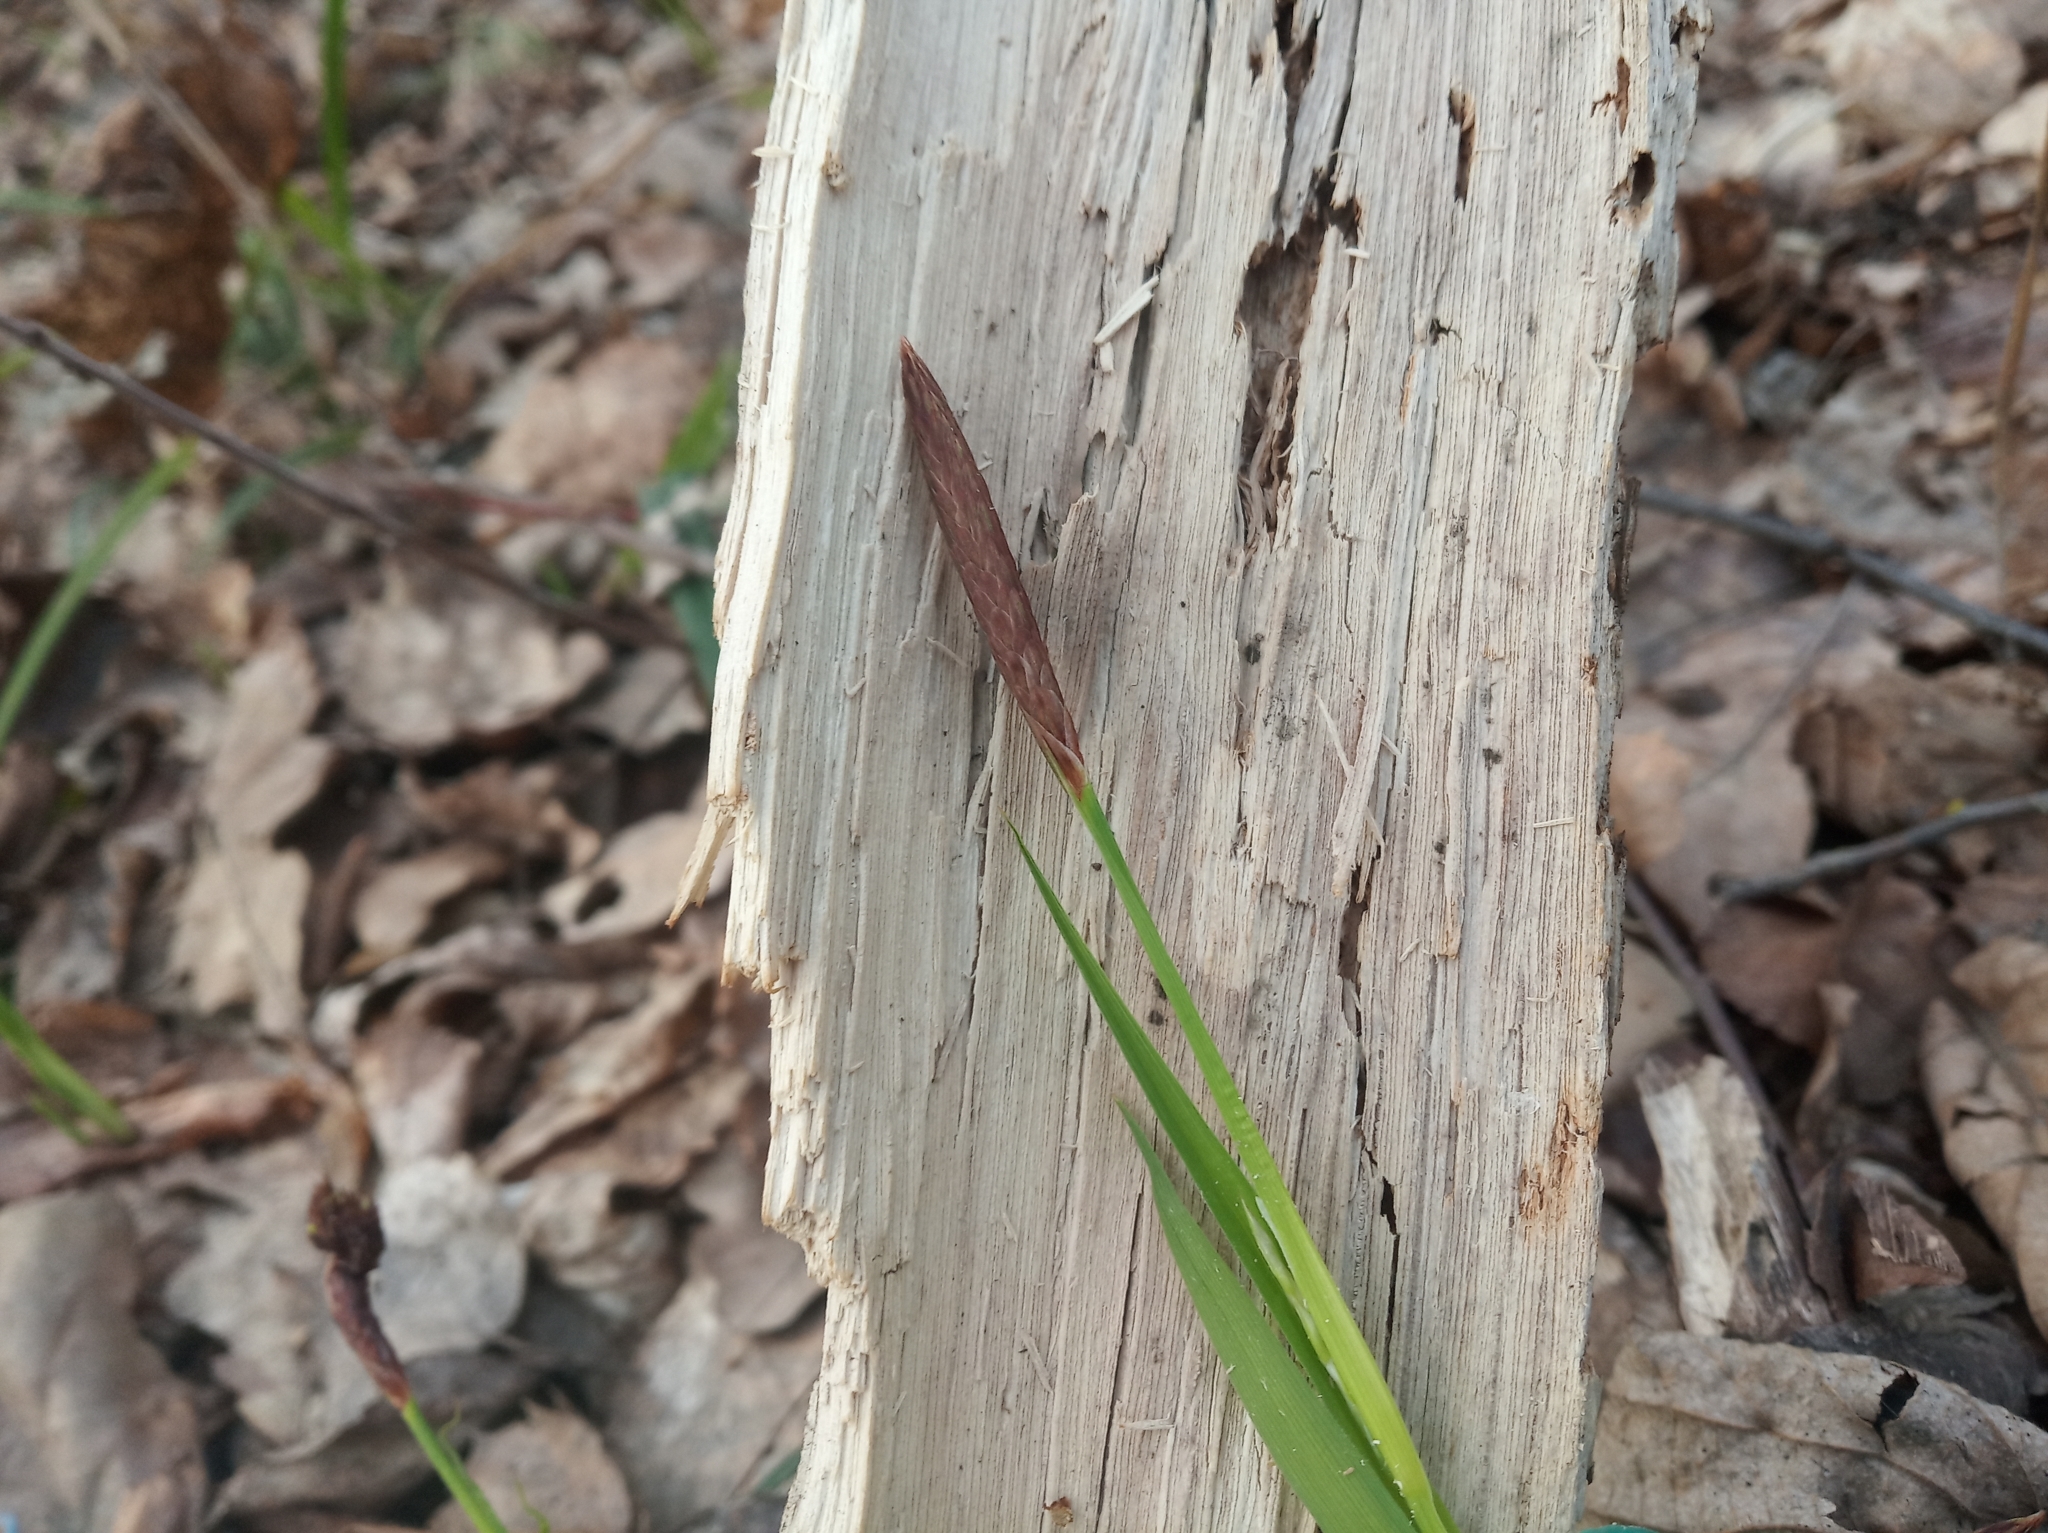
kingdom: Plantae
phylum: Tracheophyta
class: Liliopsida
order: Poales
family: Cyperaceae
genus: Carex
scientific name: Carex pilosa
